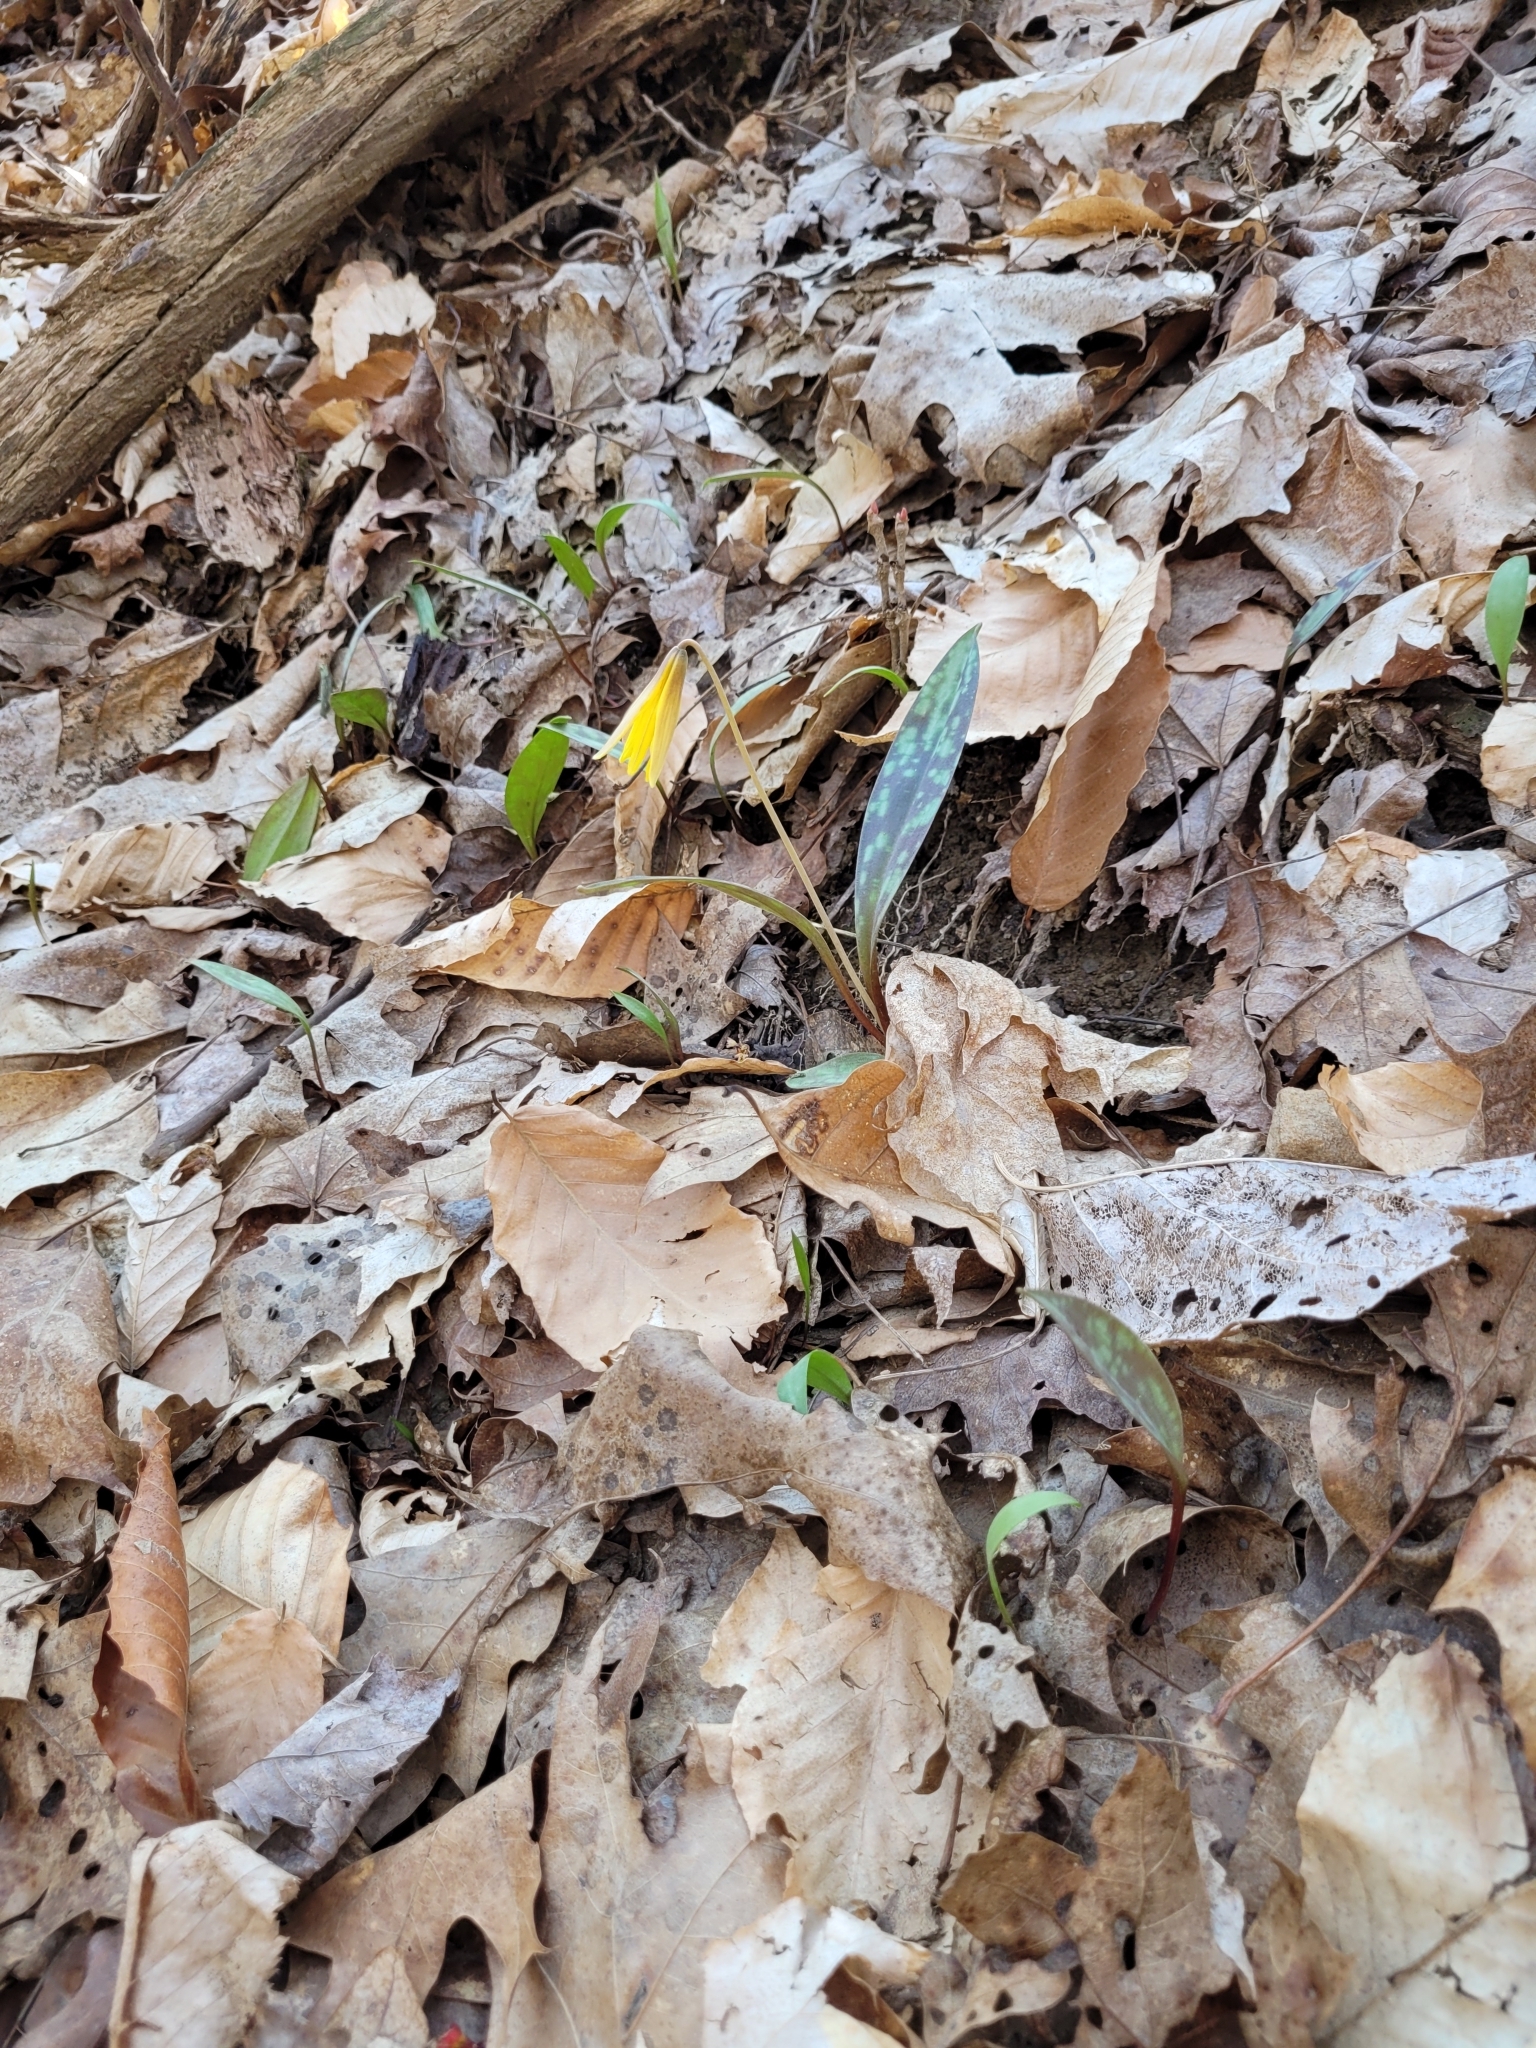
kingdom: Plantae
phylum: Tracheophyta
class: Liliopsida
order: Liliales
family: Liliaceae
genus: Erythronium
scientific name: Erythronium americanum
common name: Yellow adder's-tongue
